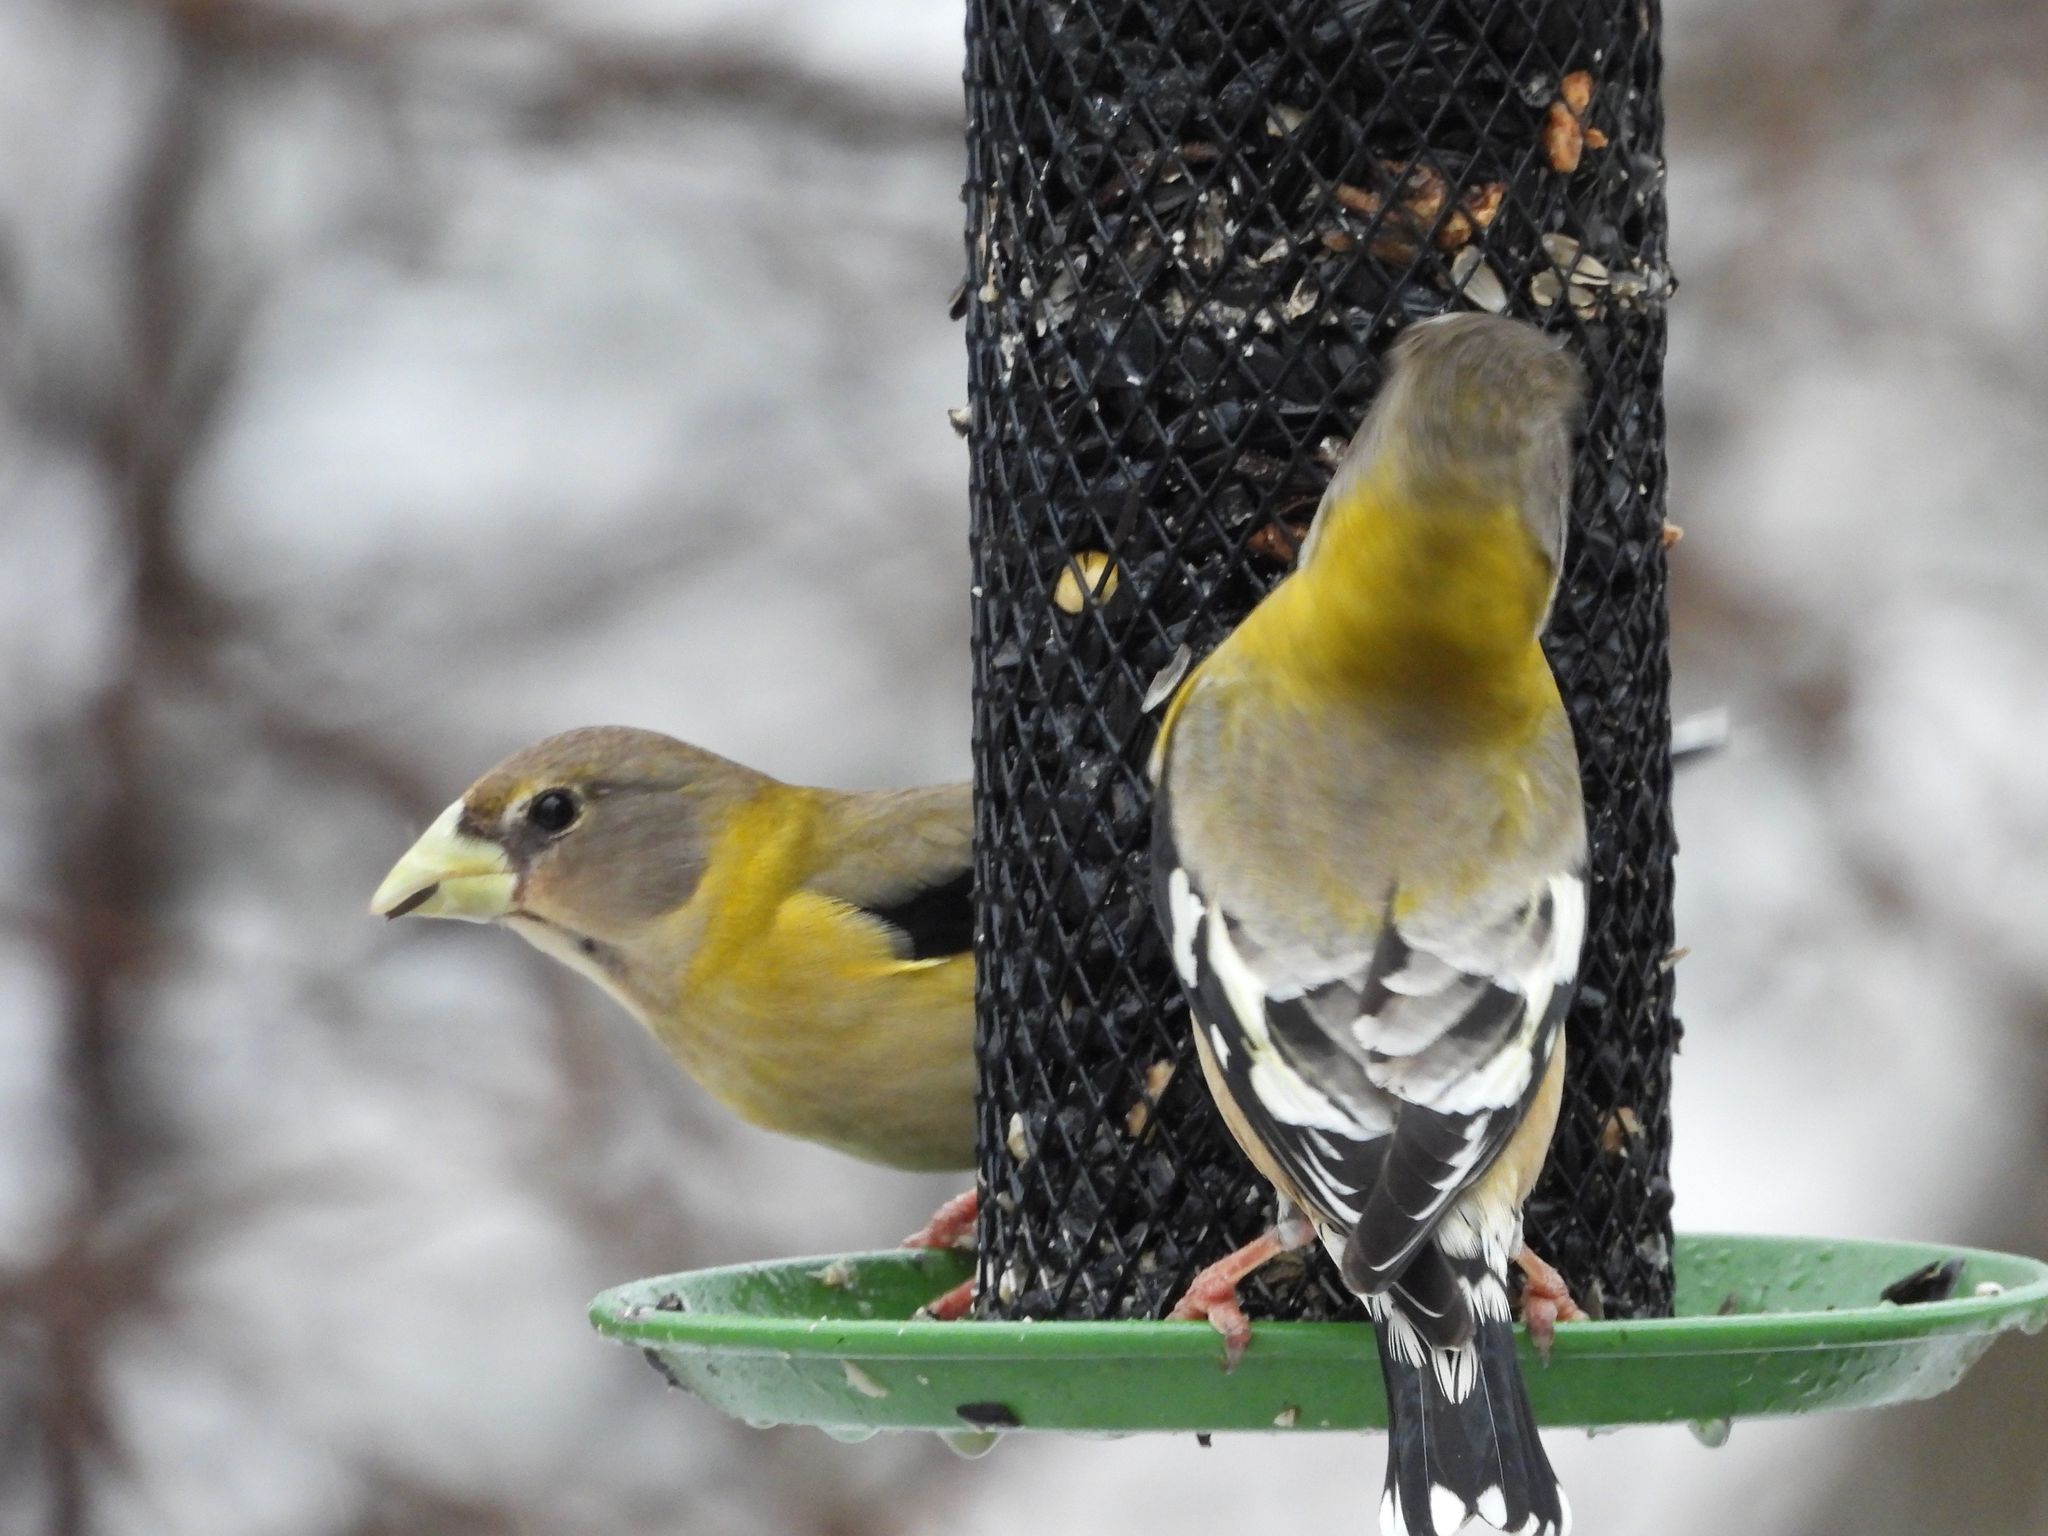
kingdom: Animalia
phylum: Chordata
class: Aves
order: Passeriformes
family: Fringillidae
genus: Hesperiphona
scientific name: Hesperiphona vespertina
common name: Evening grosbeak
